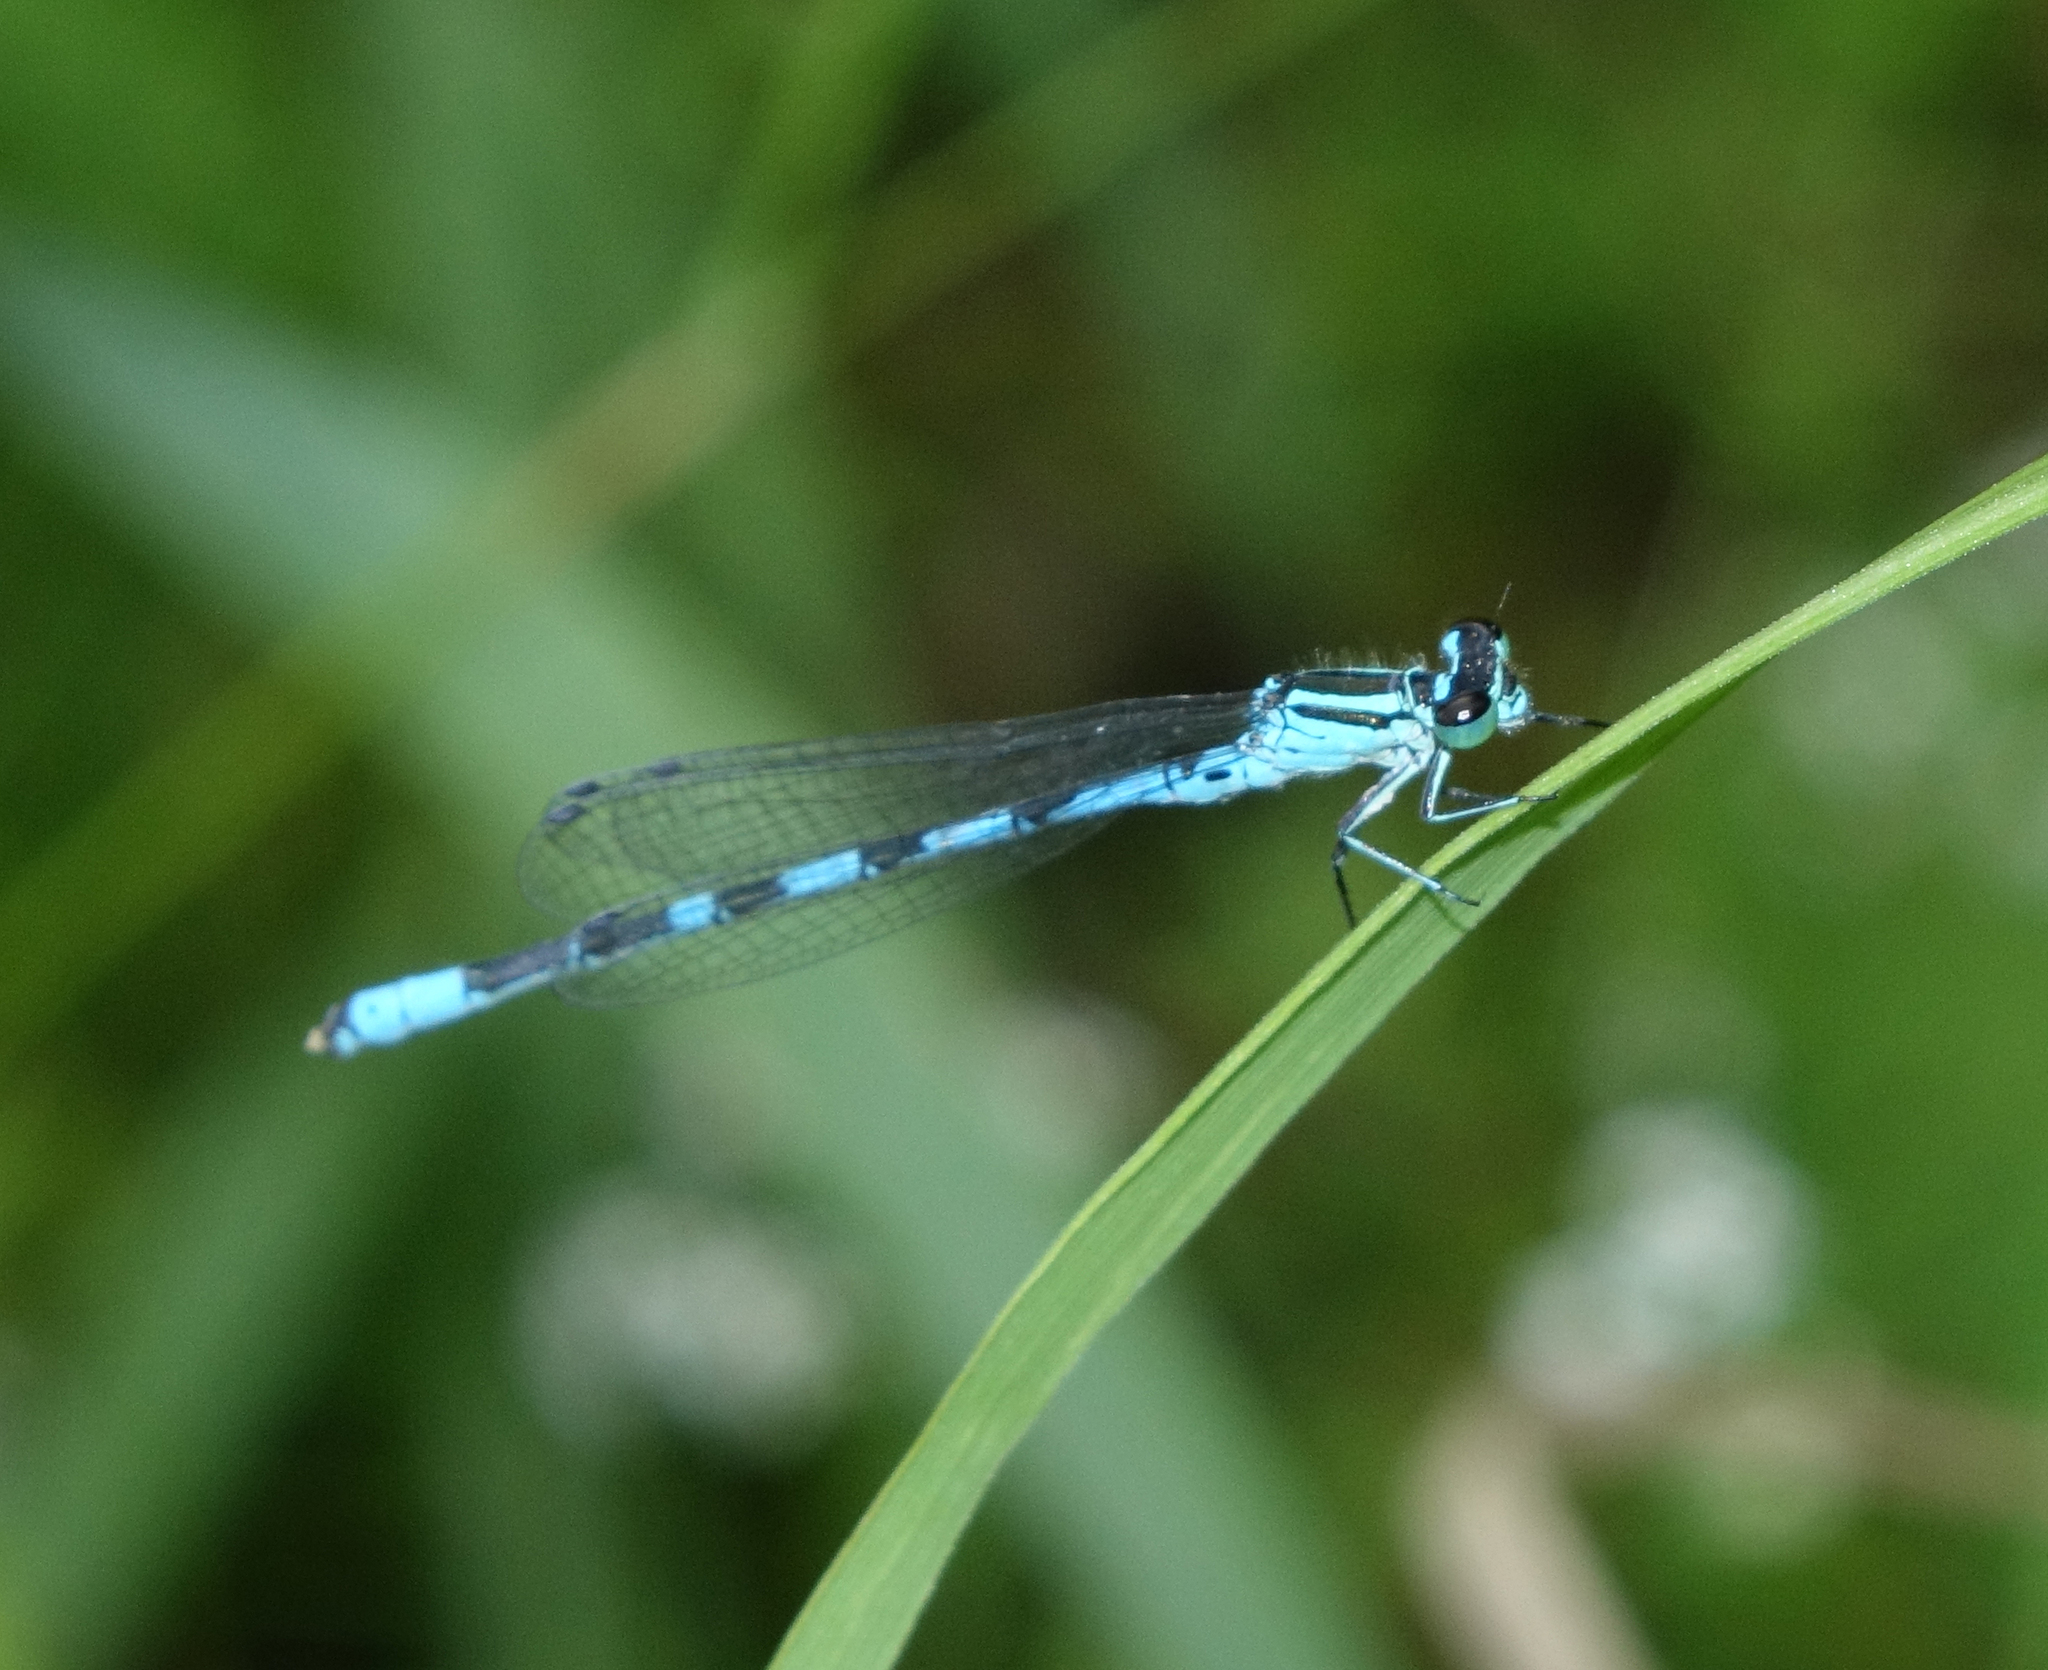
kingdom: Animalia
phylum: Arthropoda
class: Insecta
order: Odonata
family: Coenagrionidae
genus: Coenagrion
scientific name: Coenagrion hastulatum
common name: Spearhead bluet
